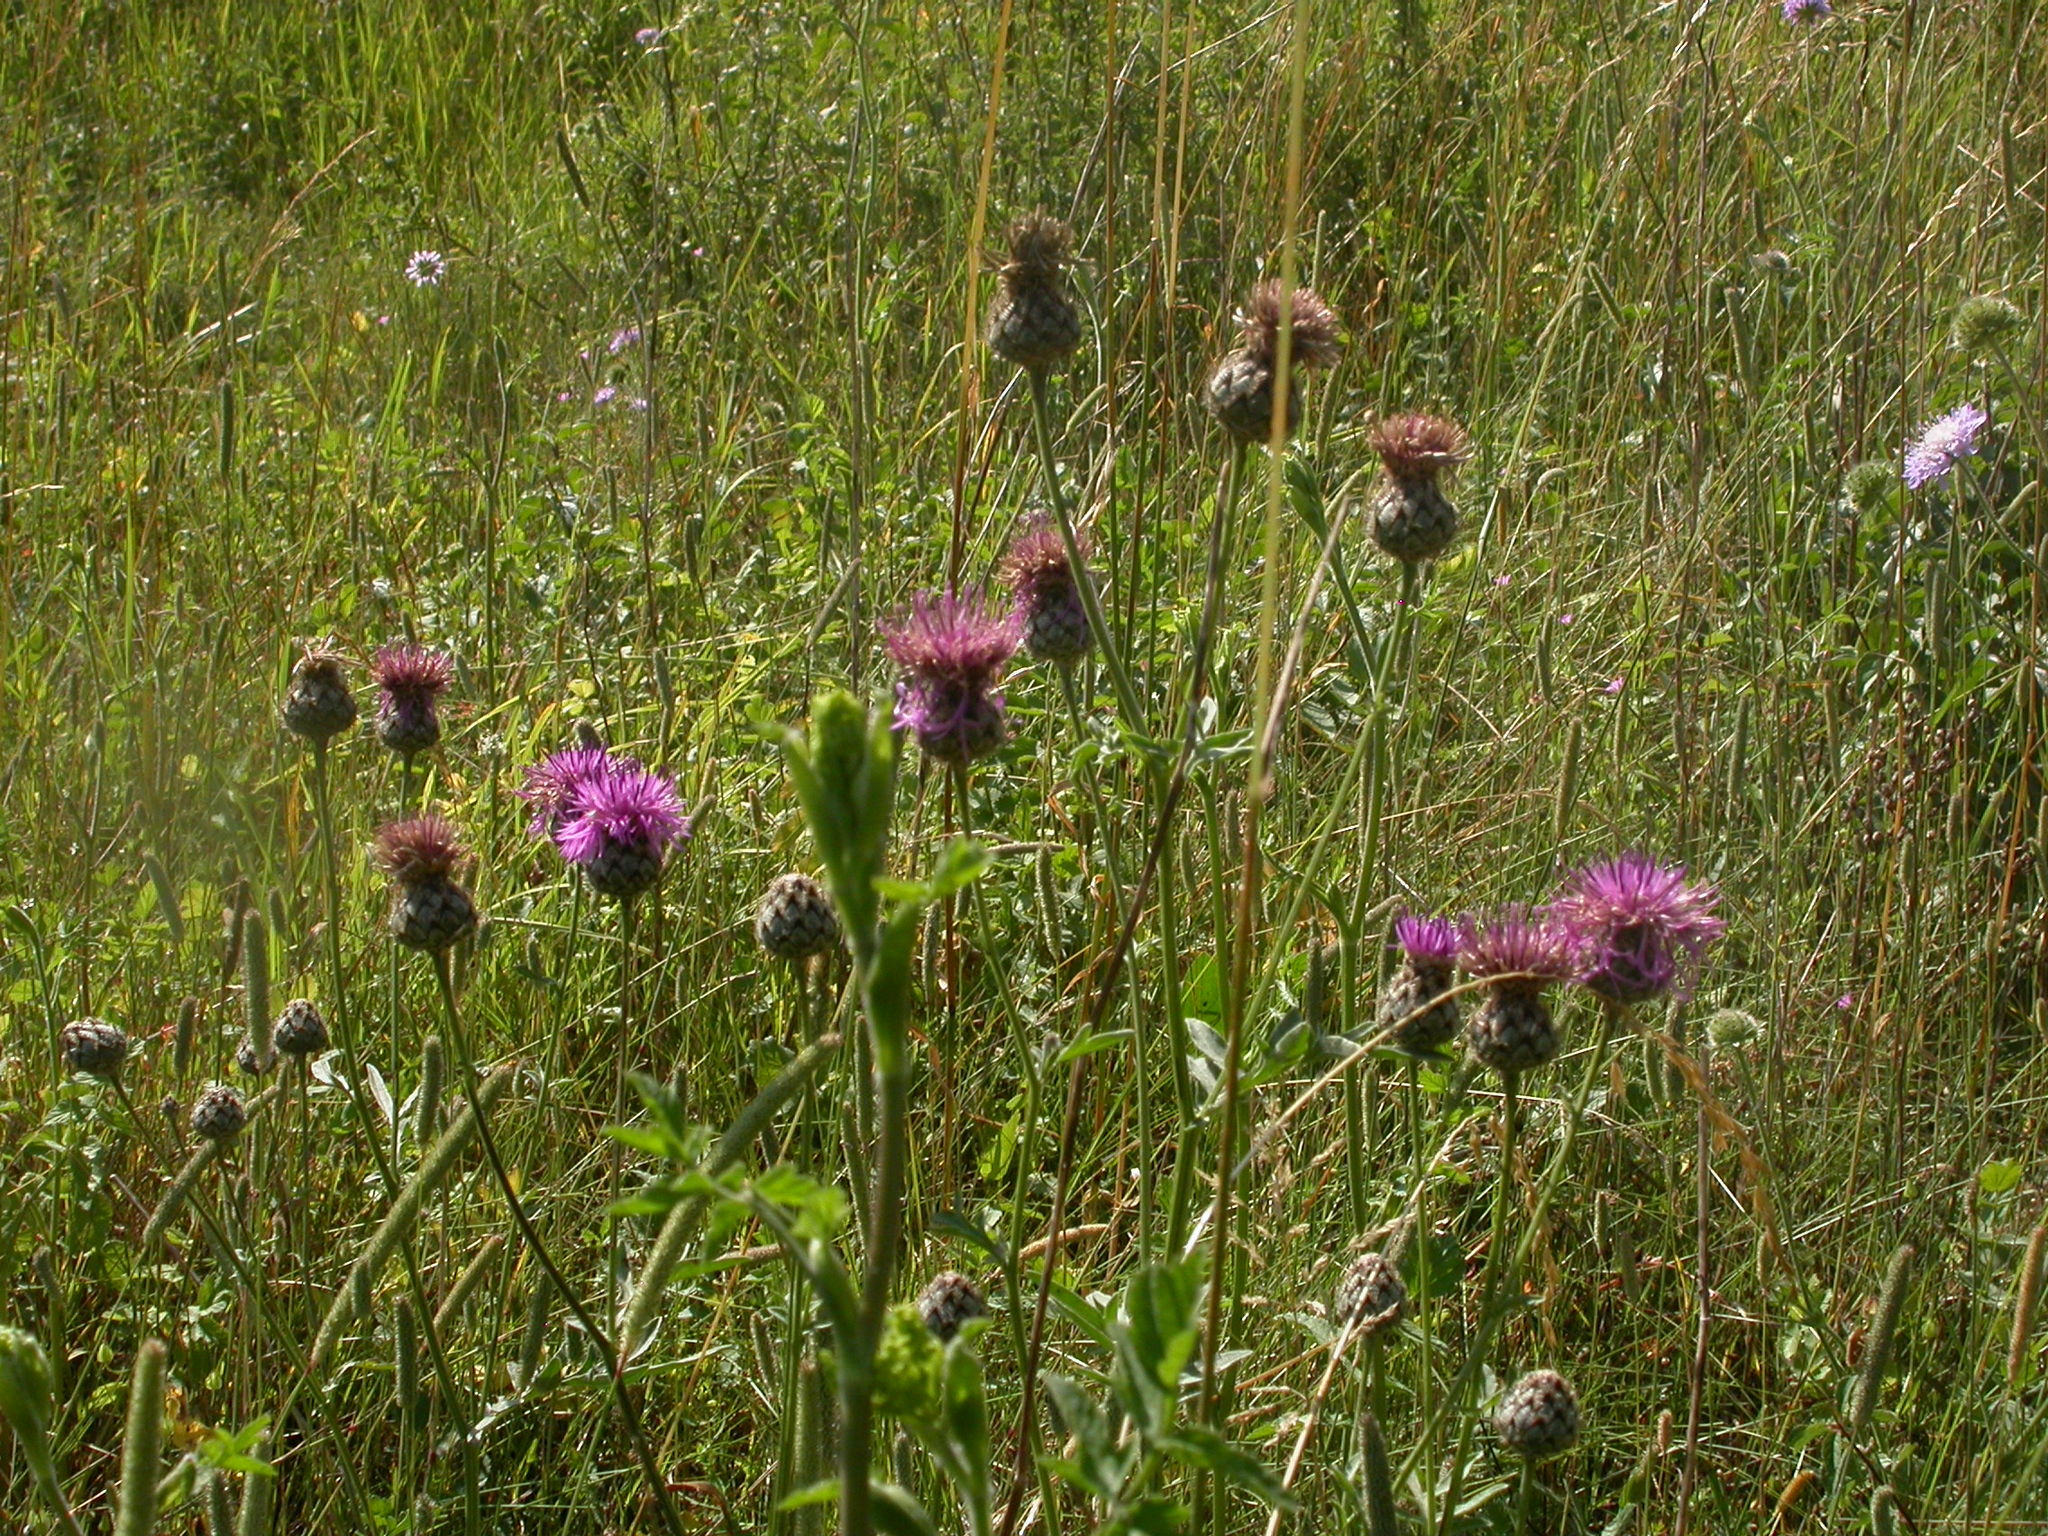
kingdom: Plantae
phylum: Tracheophyta
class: Magnoliopsida
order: Asterales
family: Asteraceae
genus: Centaurea
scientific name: Centaurea scabiosa
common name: Greater knapweed
